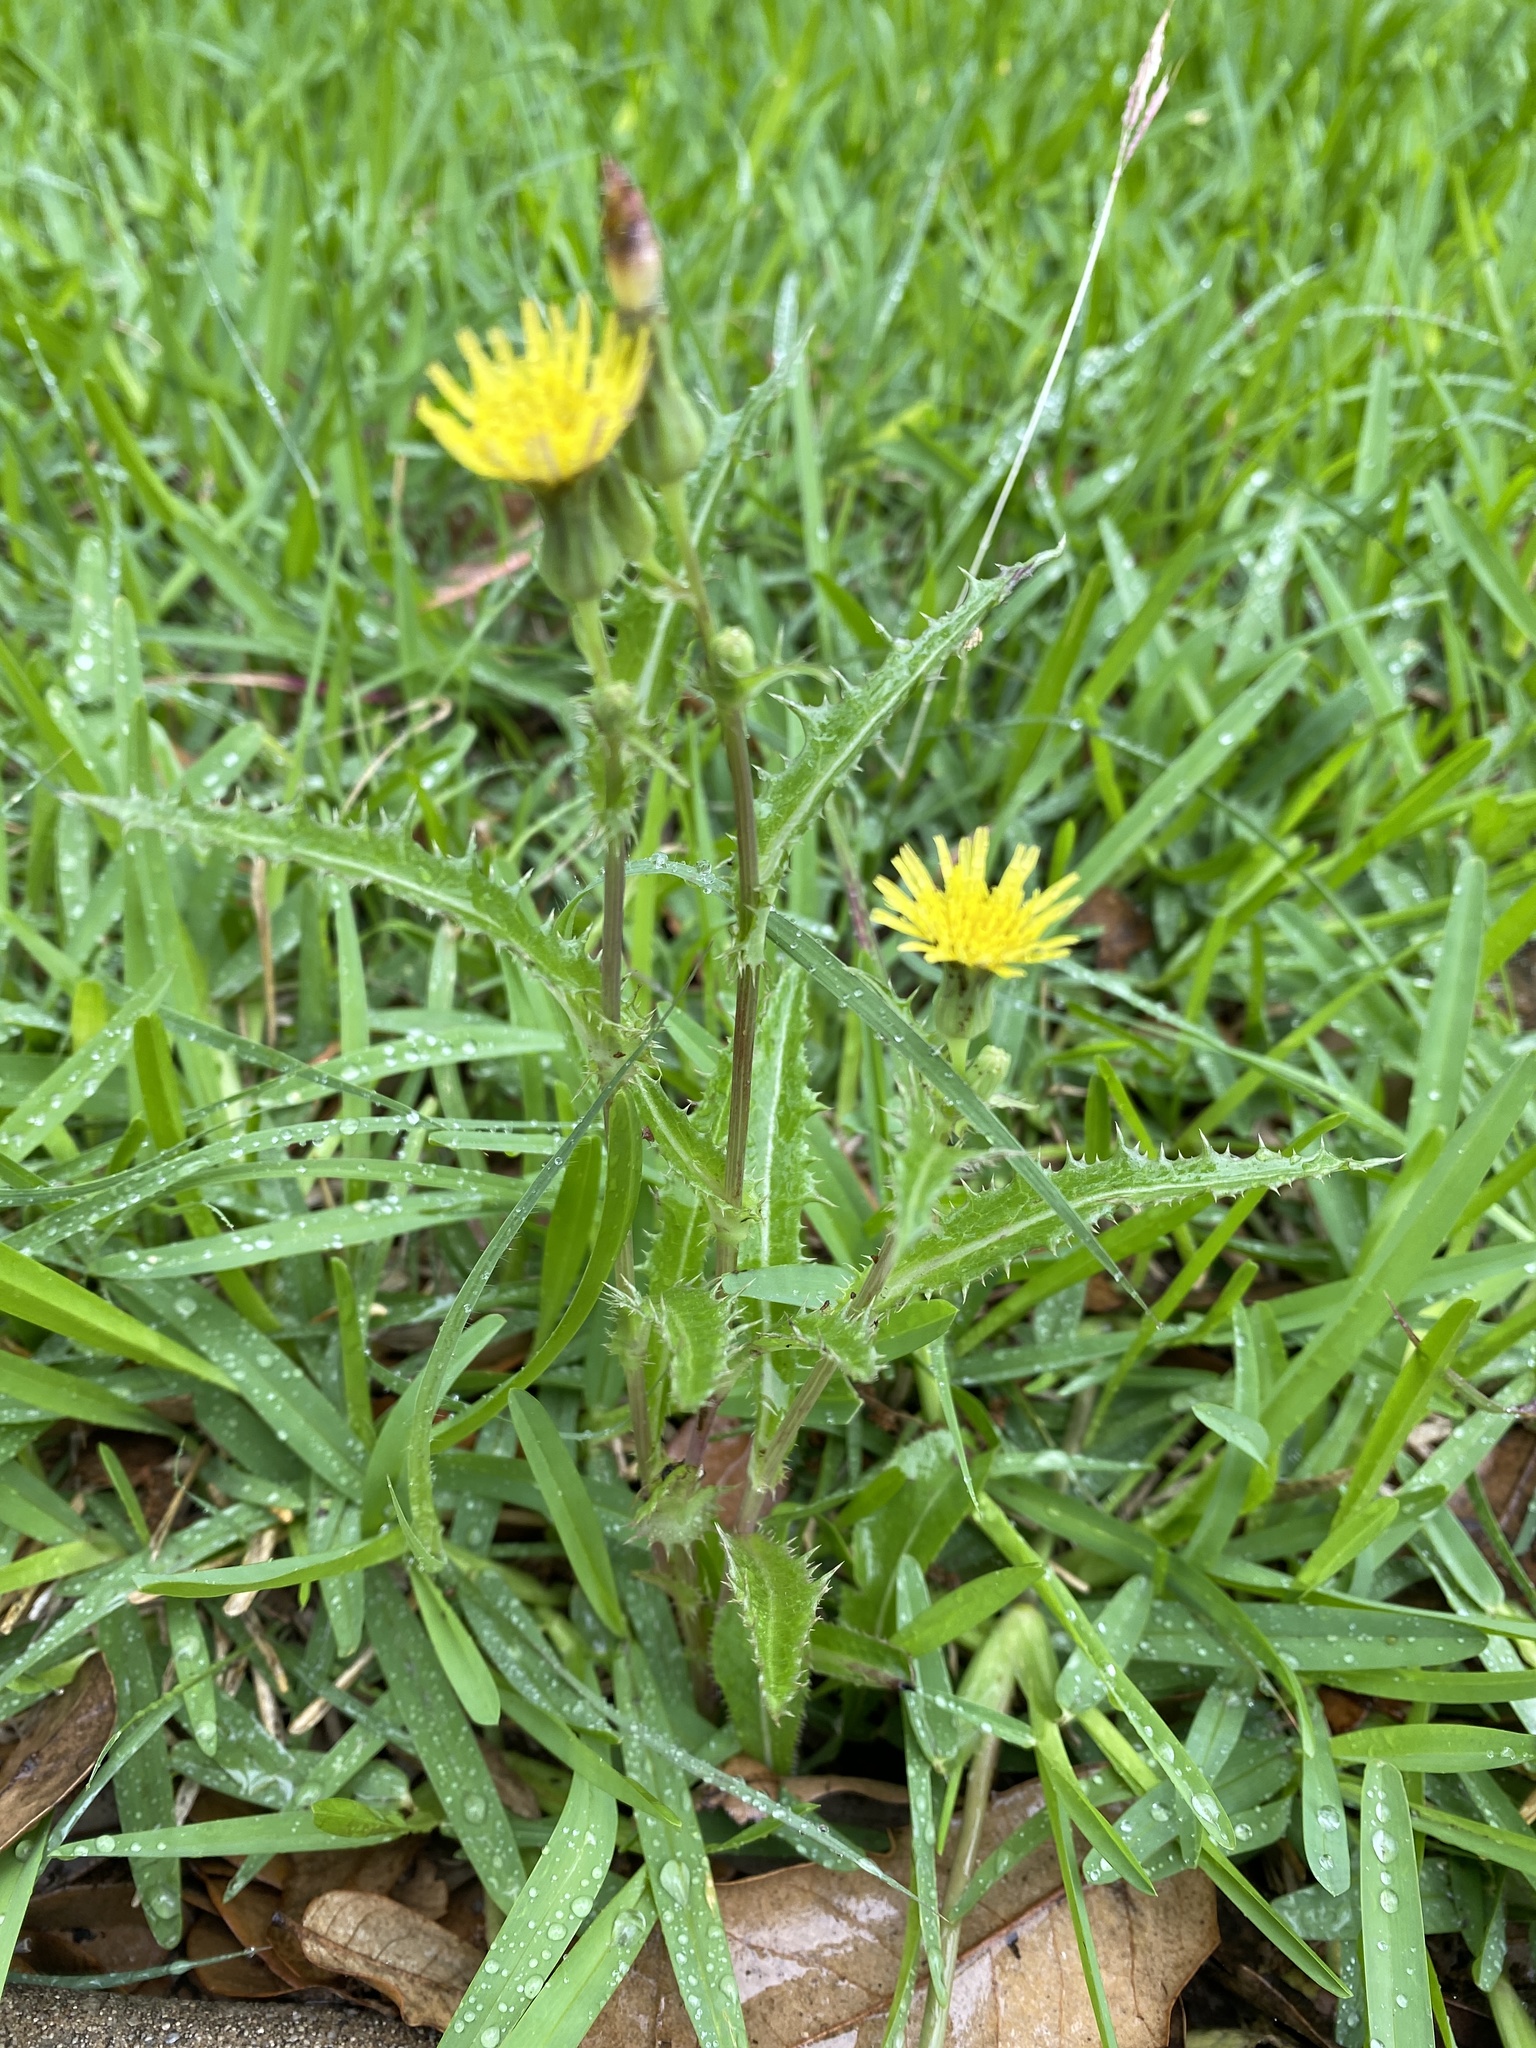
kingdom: Plantae
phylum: Tracheophyta
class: Magnoliopsida
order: Asterales
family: Asteraceae
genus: Sonchus
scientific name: Sonchus asper
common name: Prickly sow-thistle
